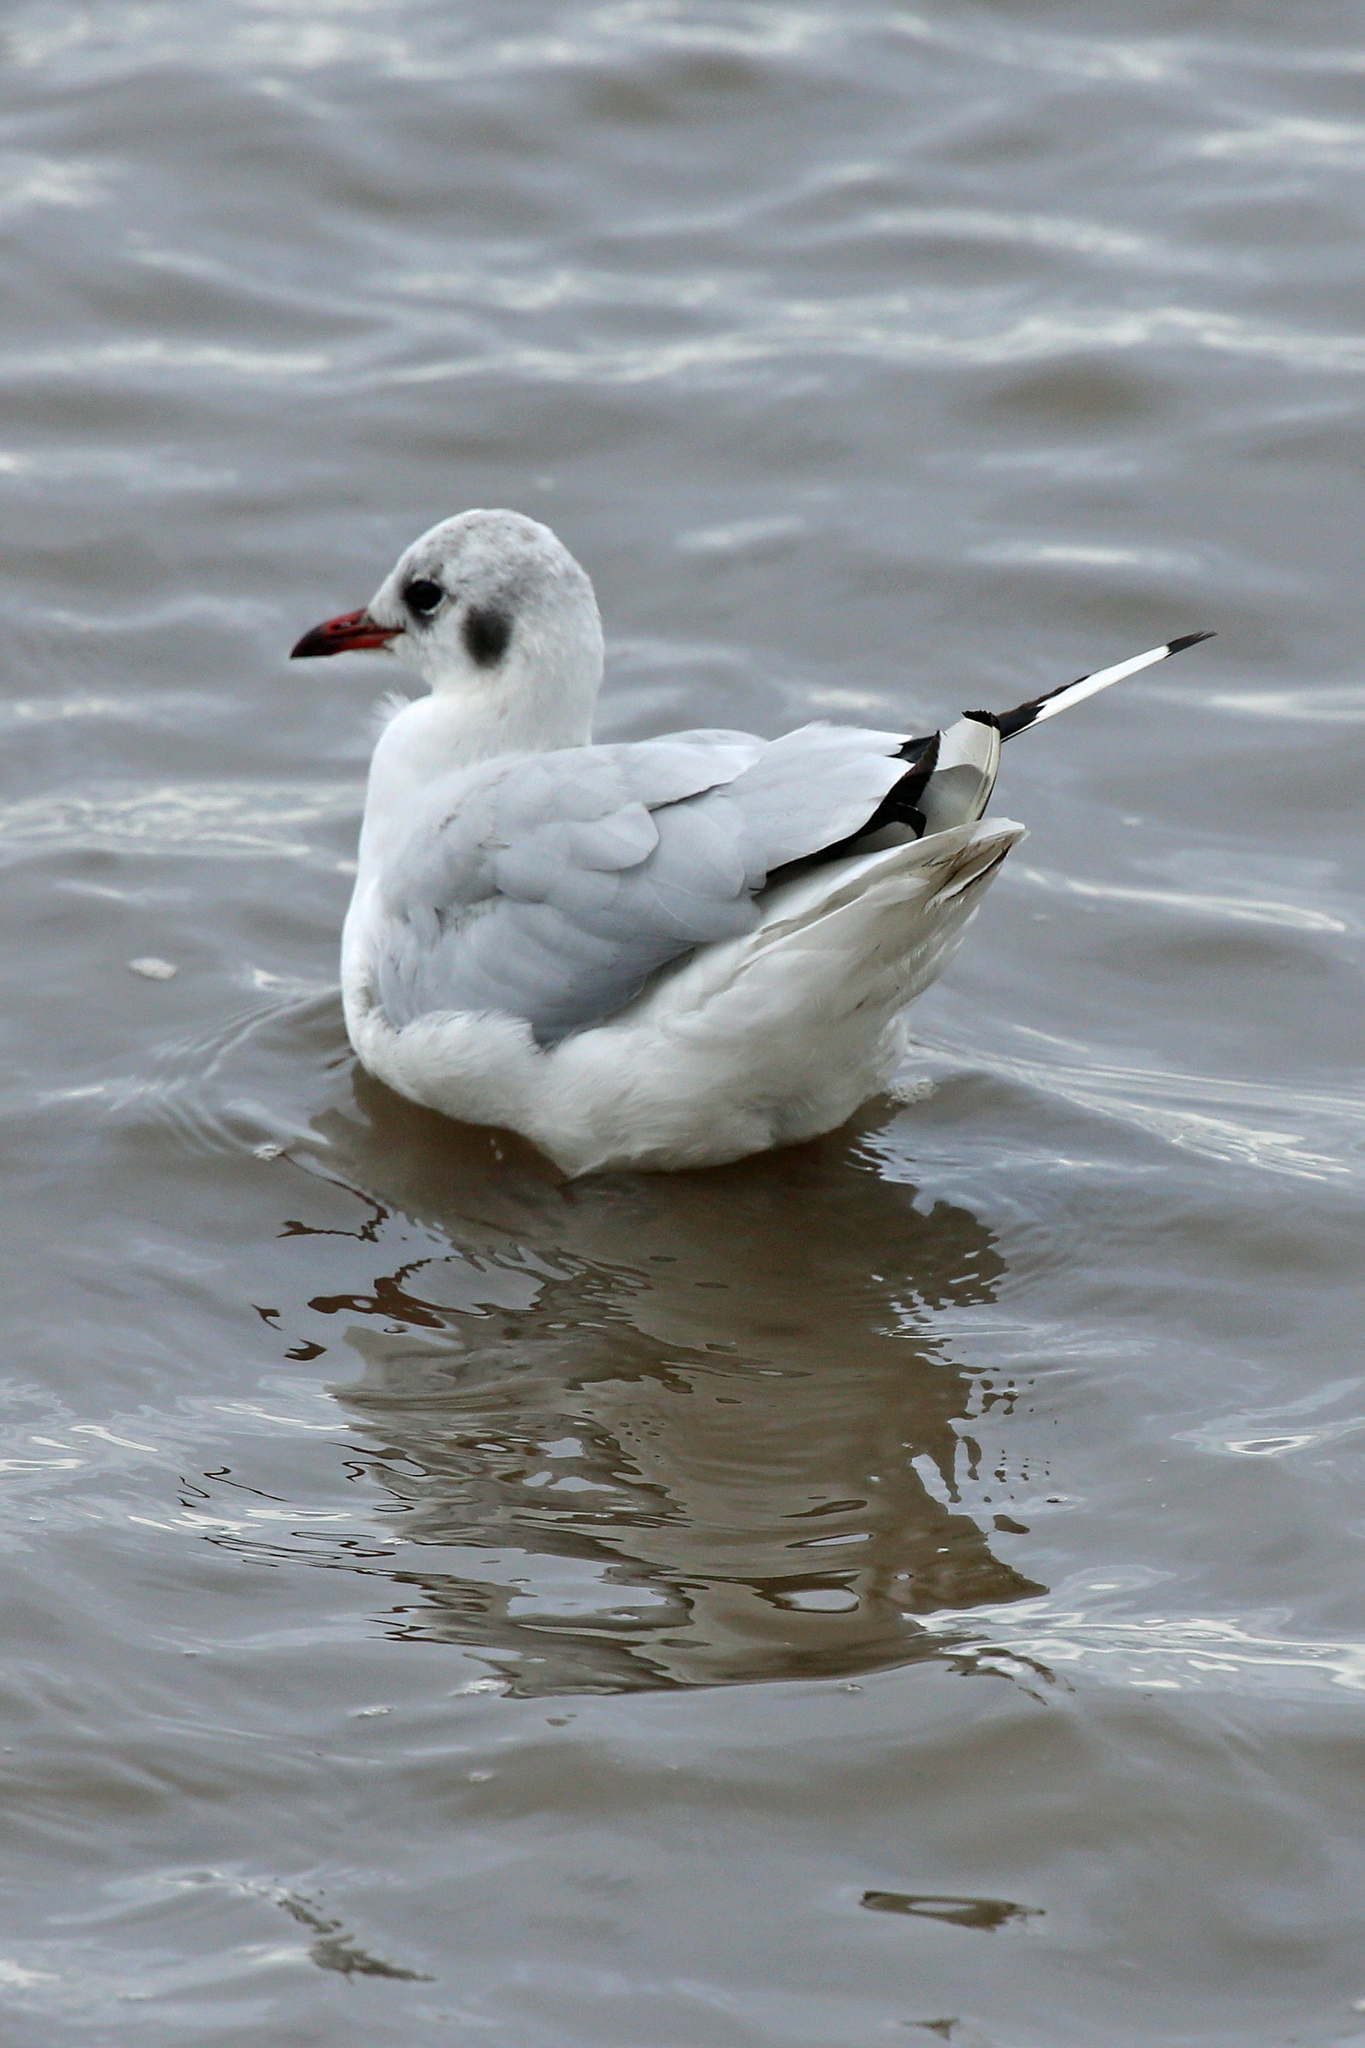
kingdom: Animalia
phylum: Chordata
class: Aves
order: Charadriiformes
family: Laridae
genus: Chroicocephalus
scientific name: Chroicocephalus ridibundus
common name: Black-headed gull
